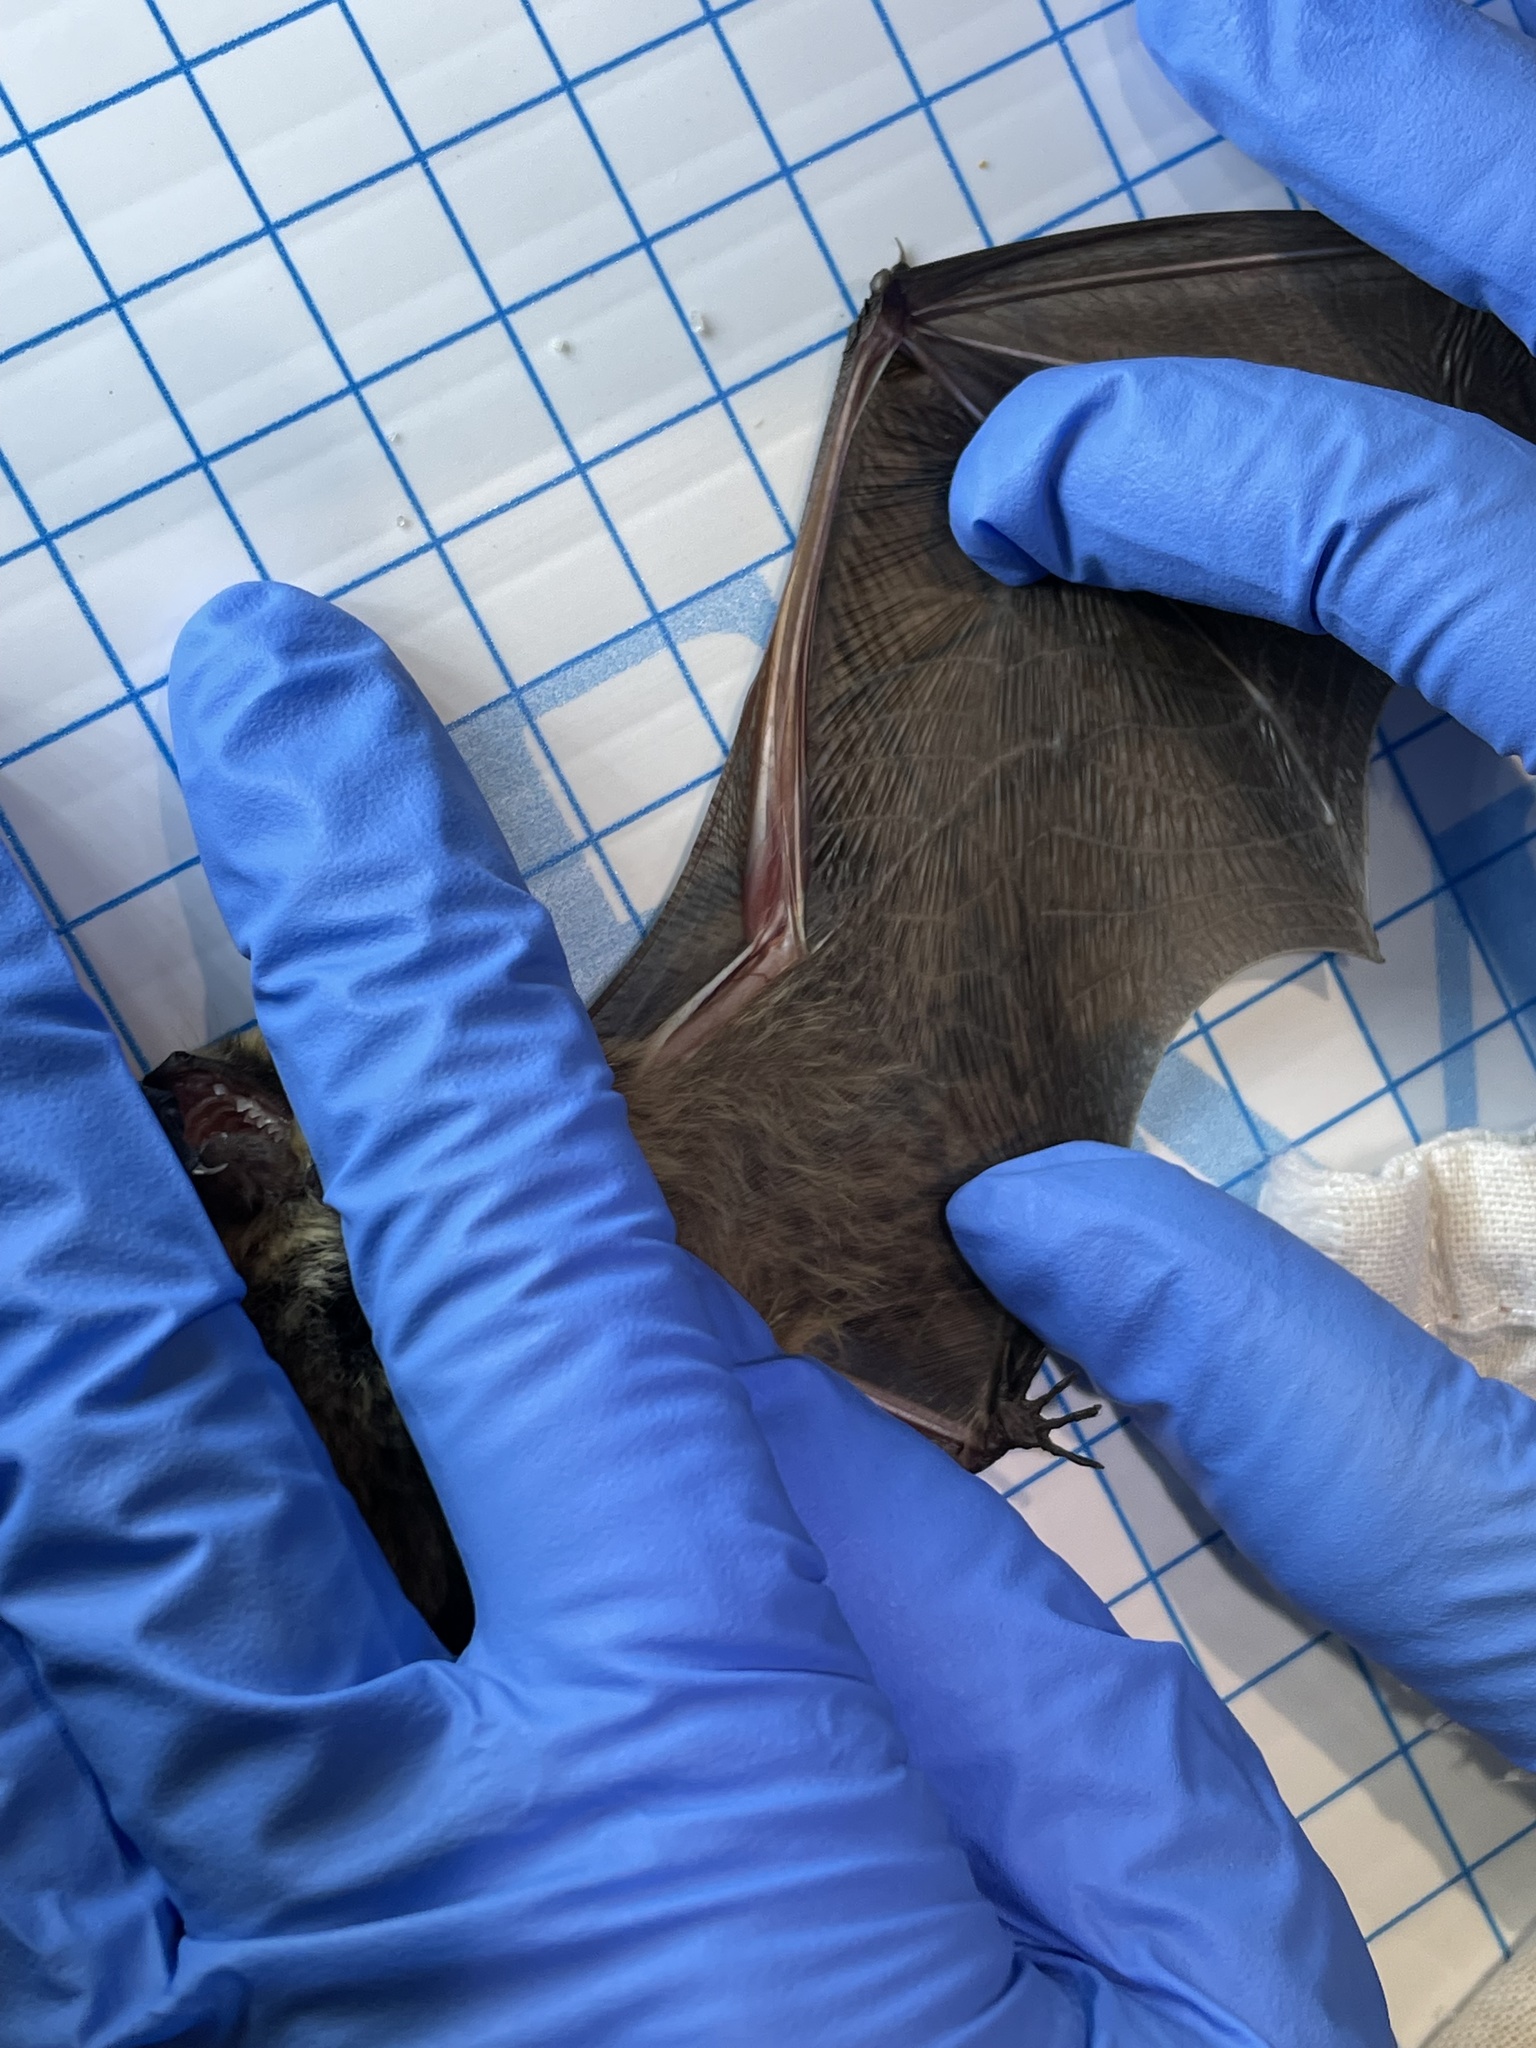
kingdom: Animalia
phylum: Chordata
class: Mammalia
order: Chiroptera
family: Vespertilionidae
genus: Myotis
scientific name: Myotis volans
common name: Long-legged myotis
